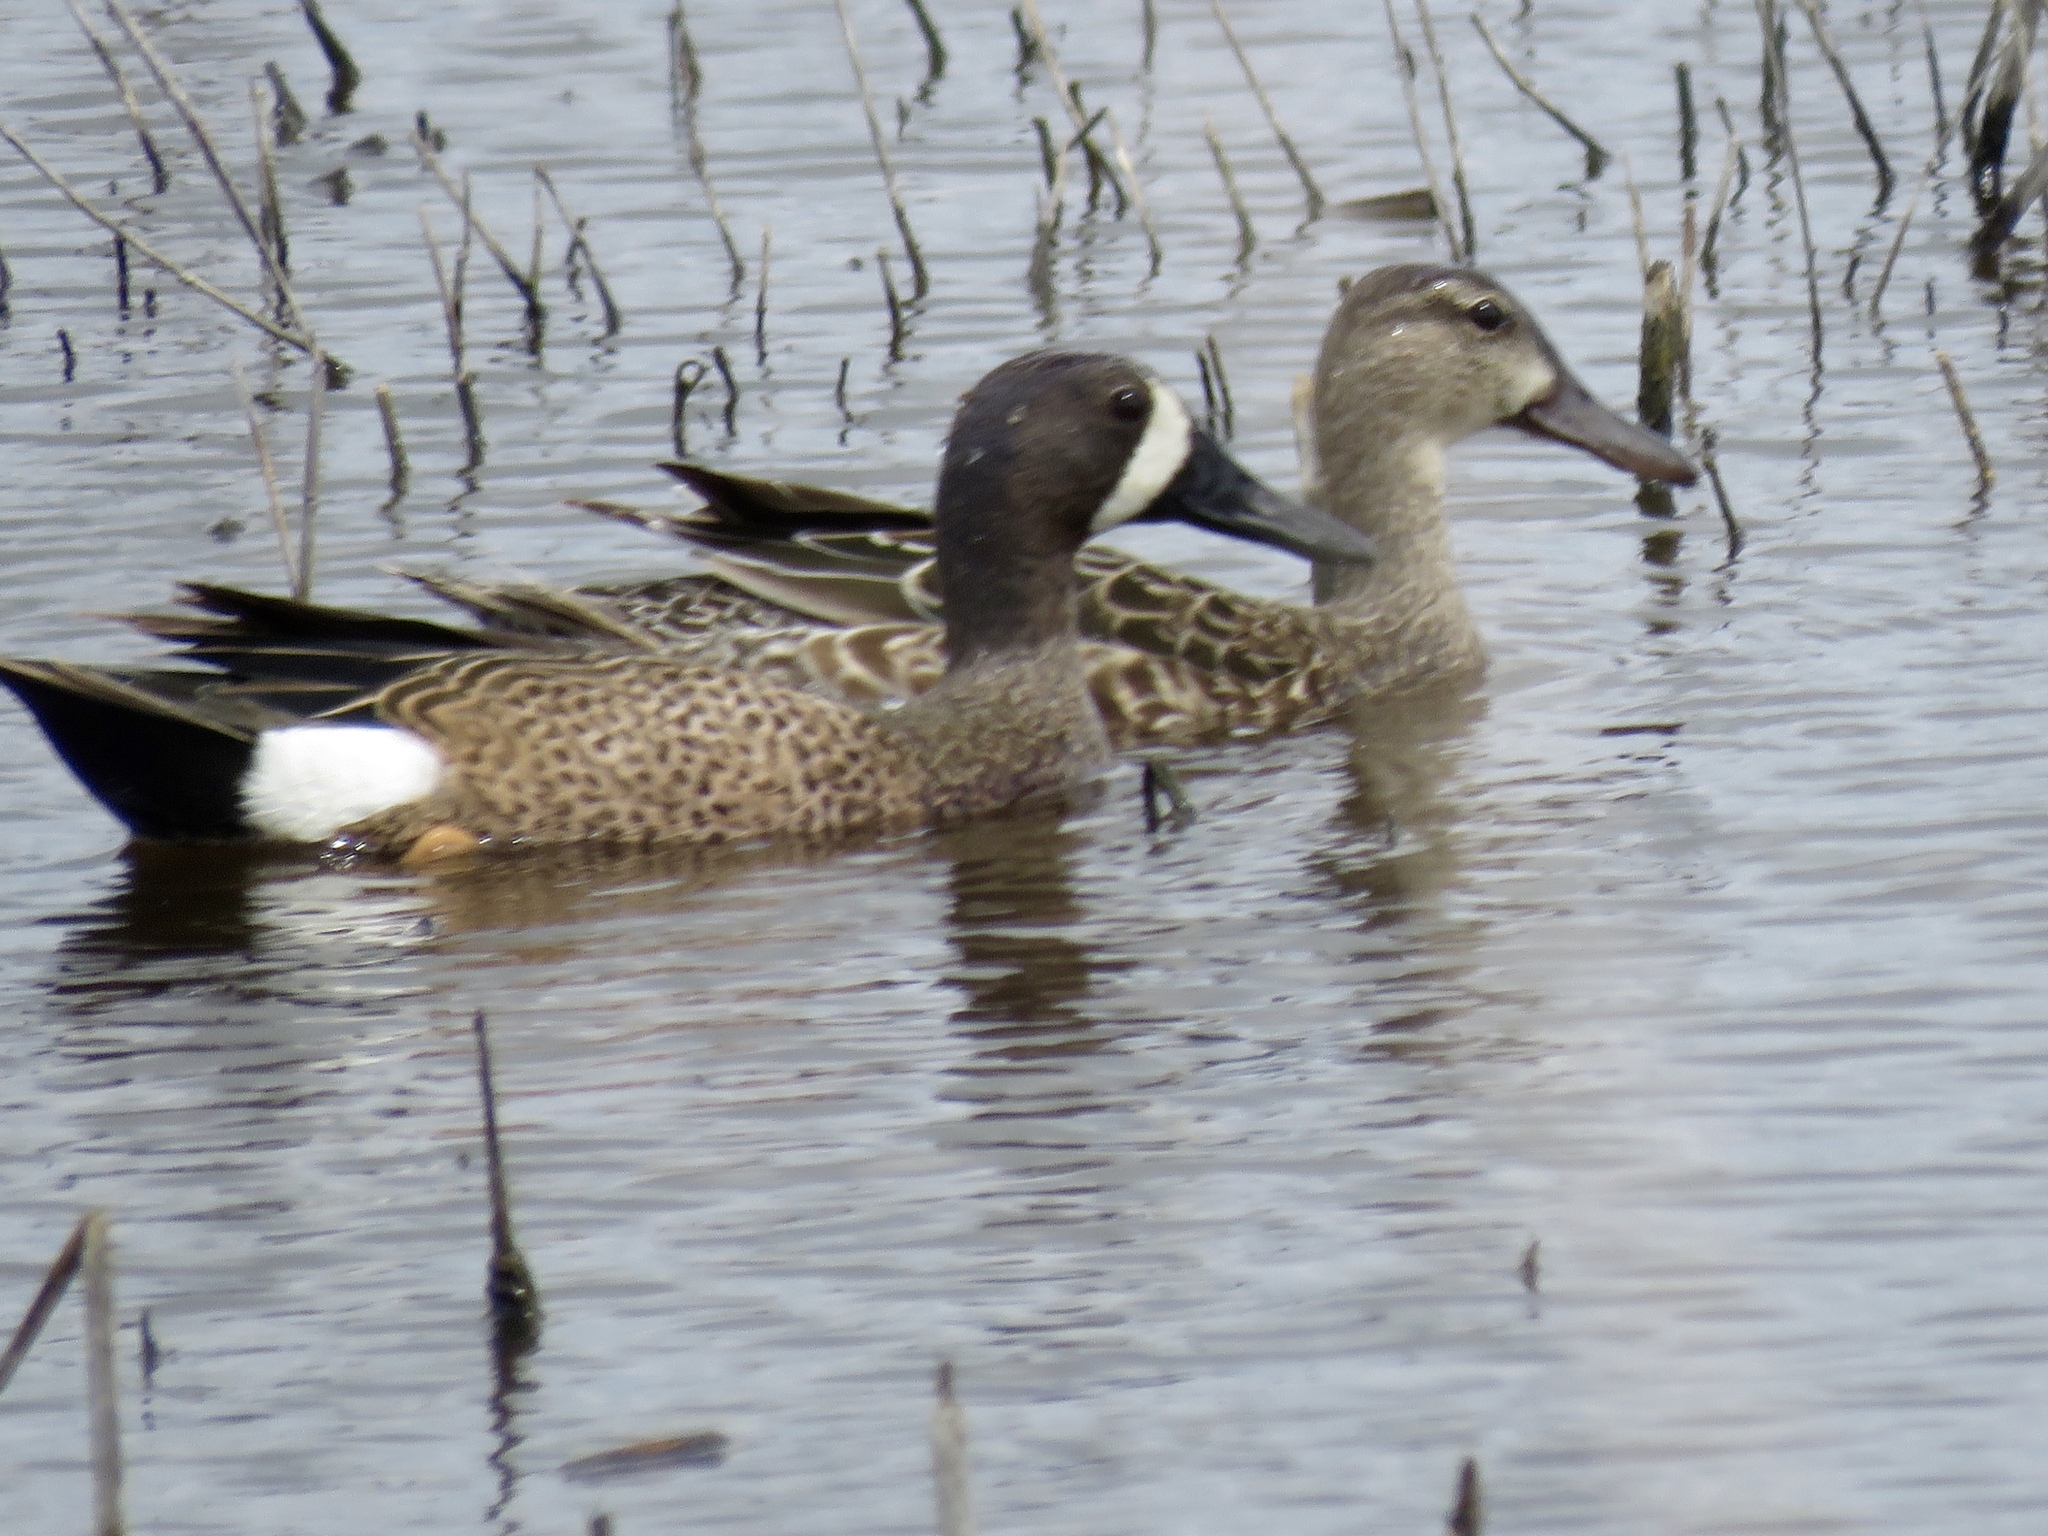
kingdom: Animalia
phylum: Chordata
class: Aves
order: Anseriformes
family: Anatidae
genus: Spatula
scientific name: Spatula discors
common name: Blue-winged teal
